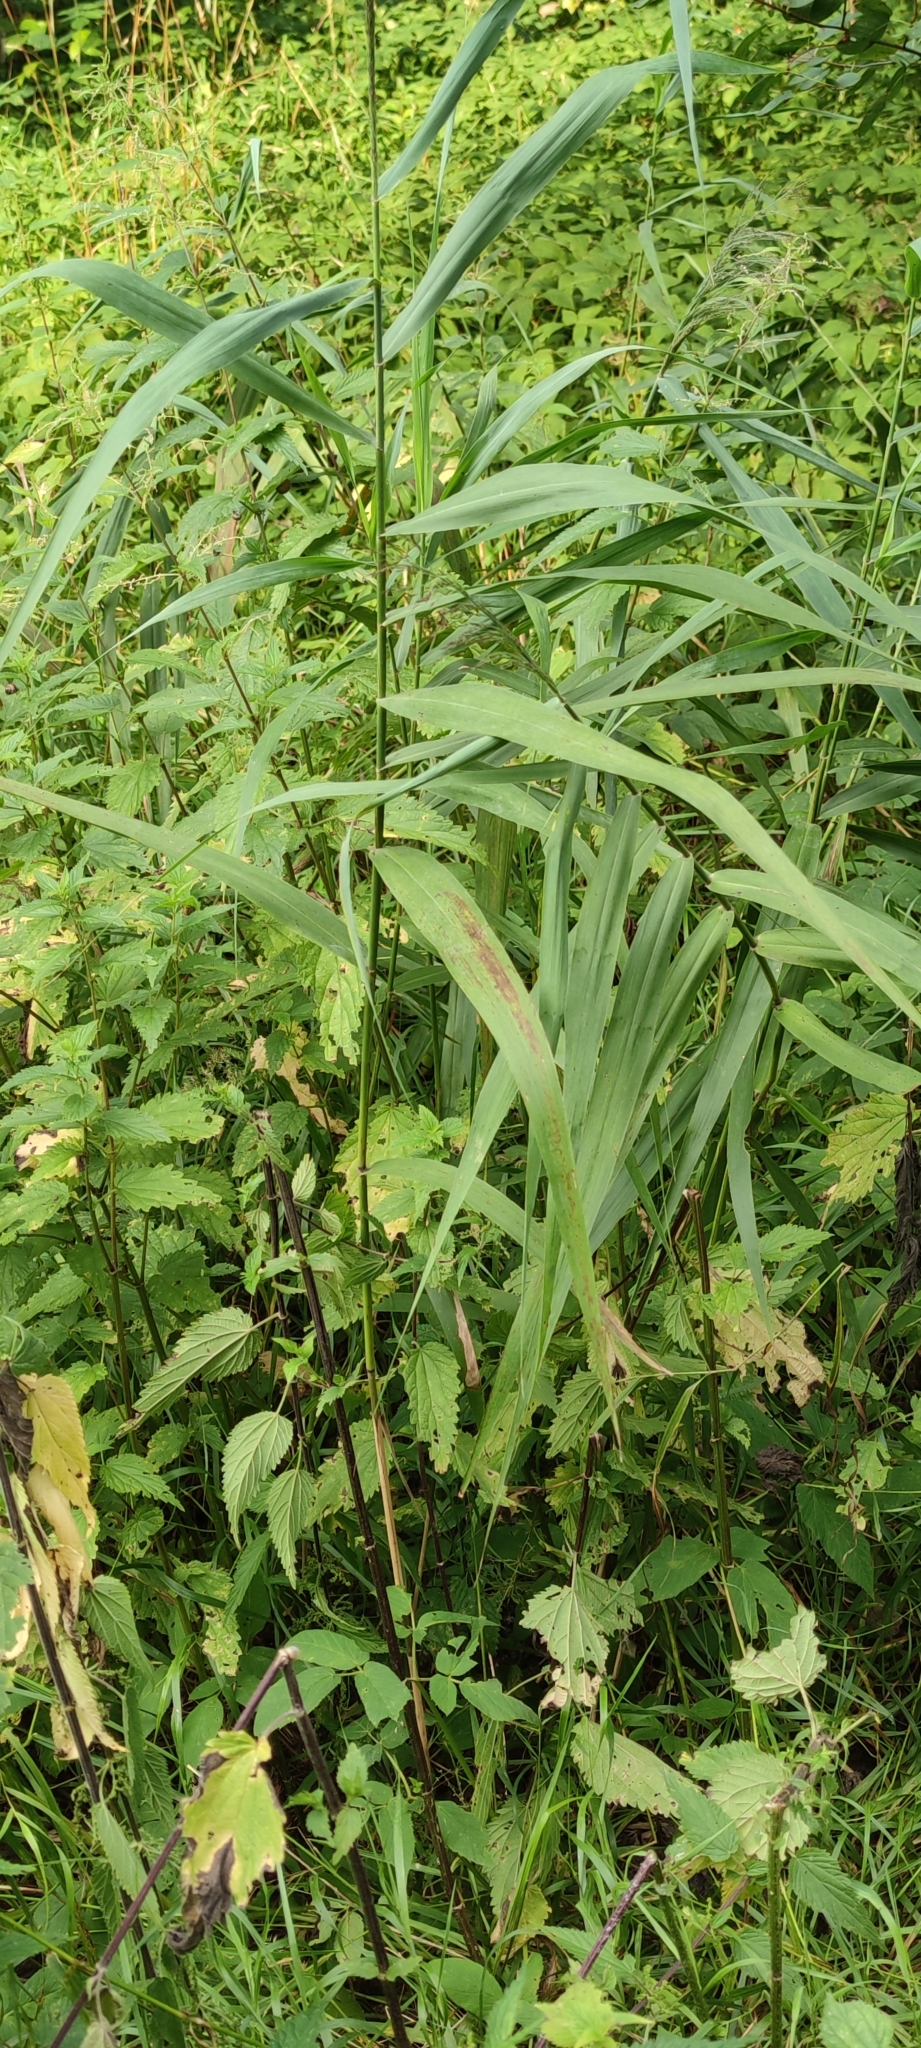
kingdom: Plantae
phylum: Tracheophyta
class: Liliopsida
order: Poales
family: Poaceae
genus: Phragmites
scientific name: Phragmites australis
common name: Common reed
